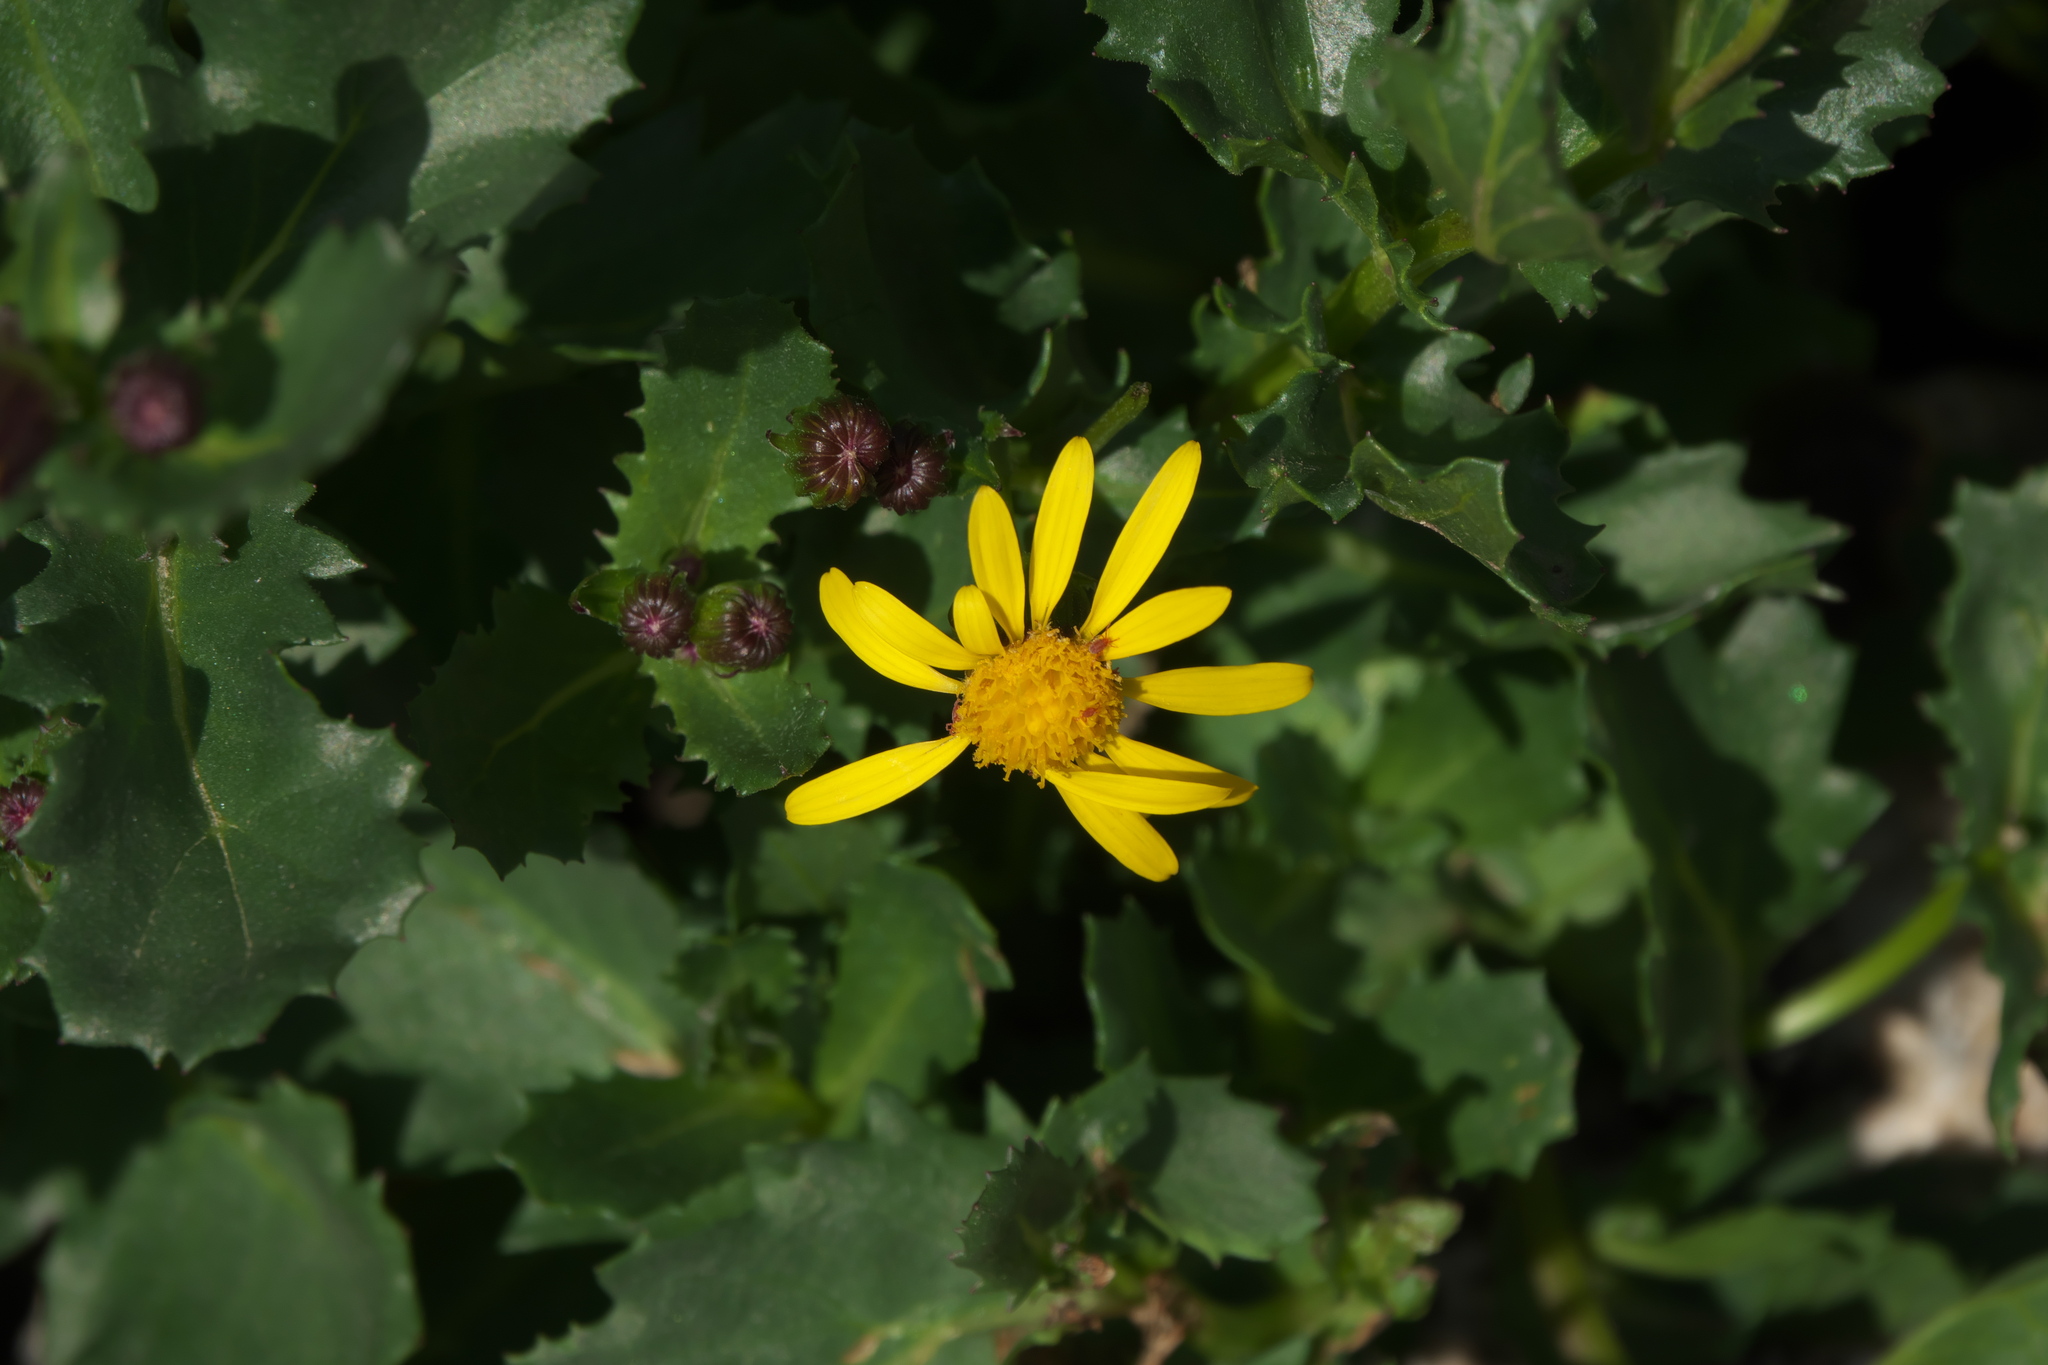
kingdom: Plantae
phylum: Tracheophyta
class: Magnoliopsida
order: Asterales
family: Asteraceae
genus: Senecio
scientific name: Senecio fremontii
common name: Fremont's groundsel
